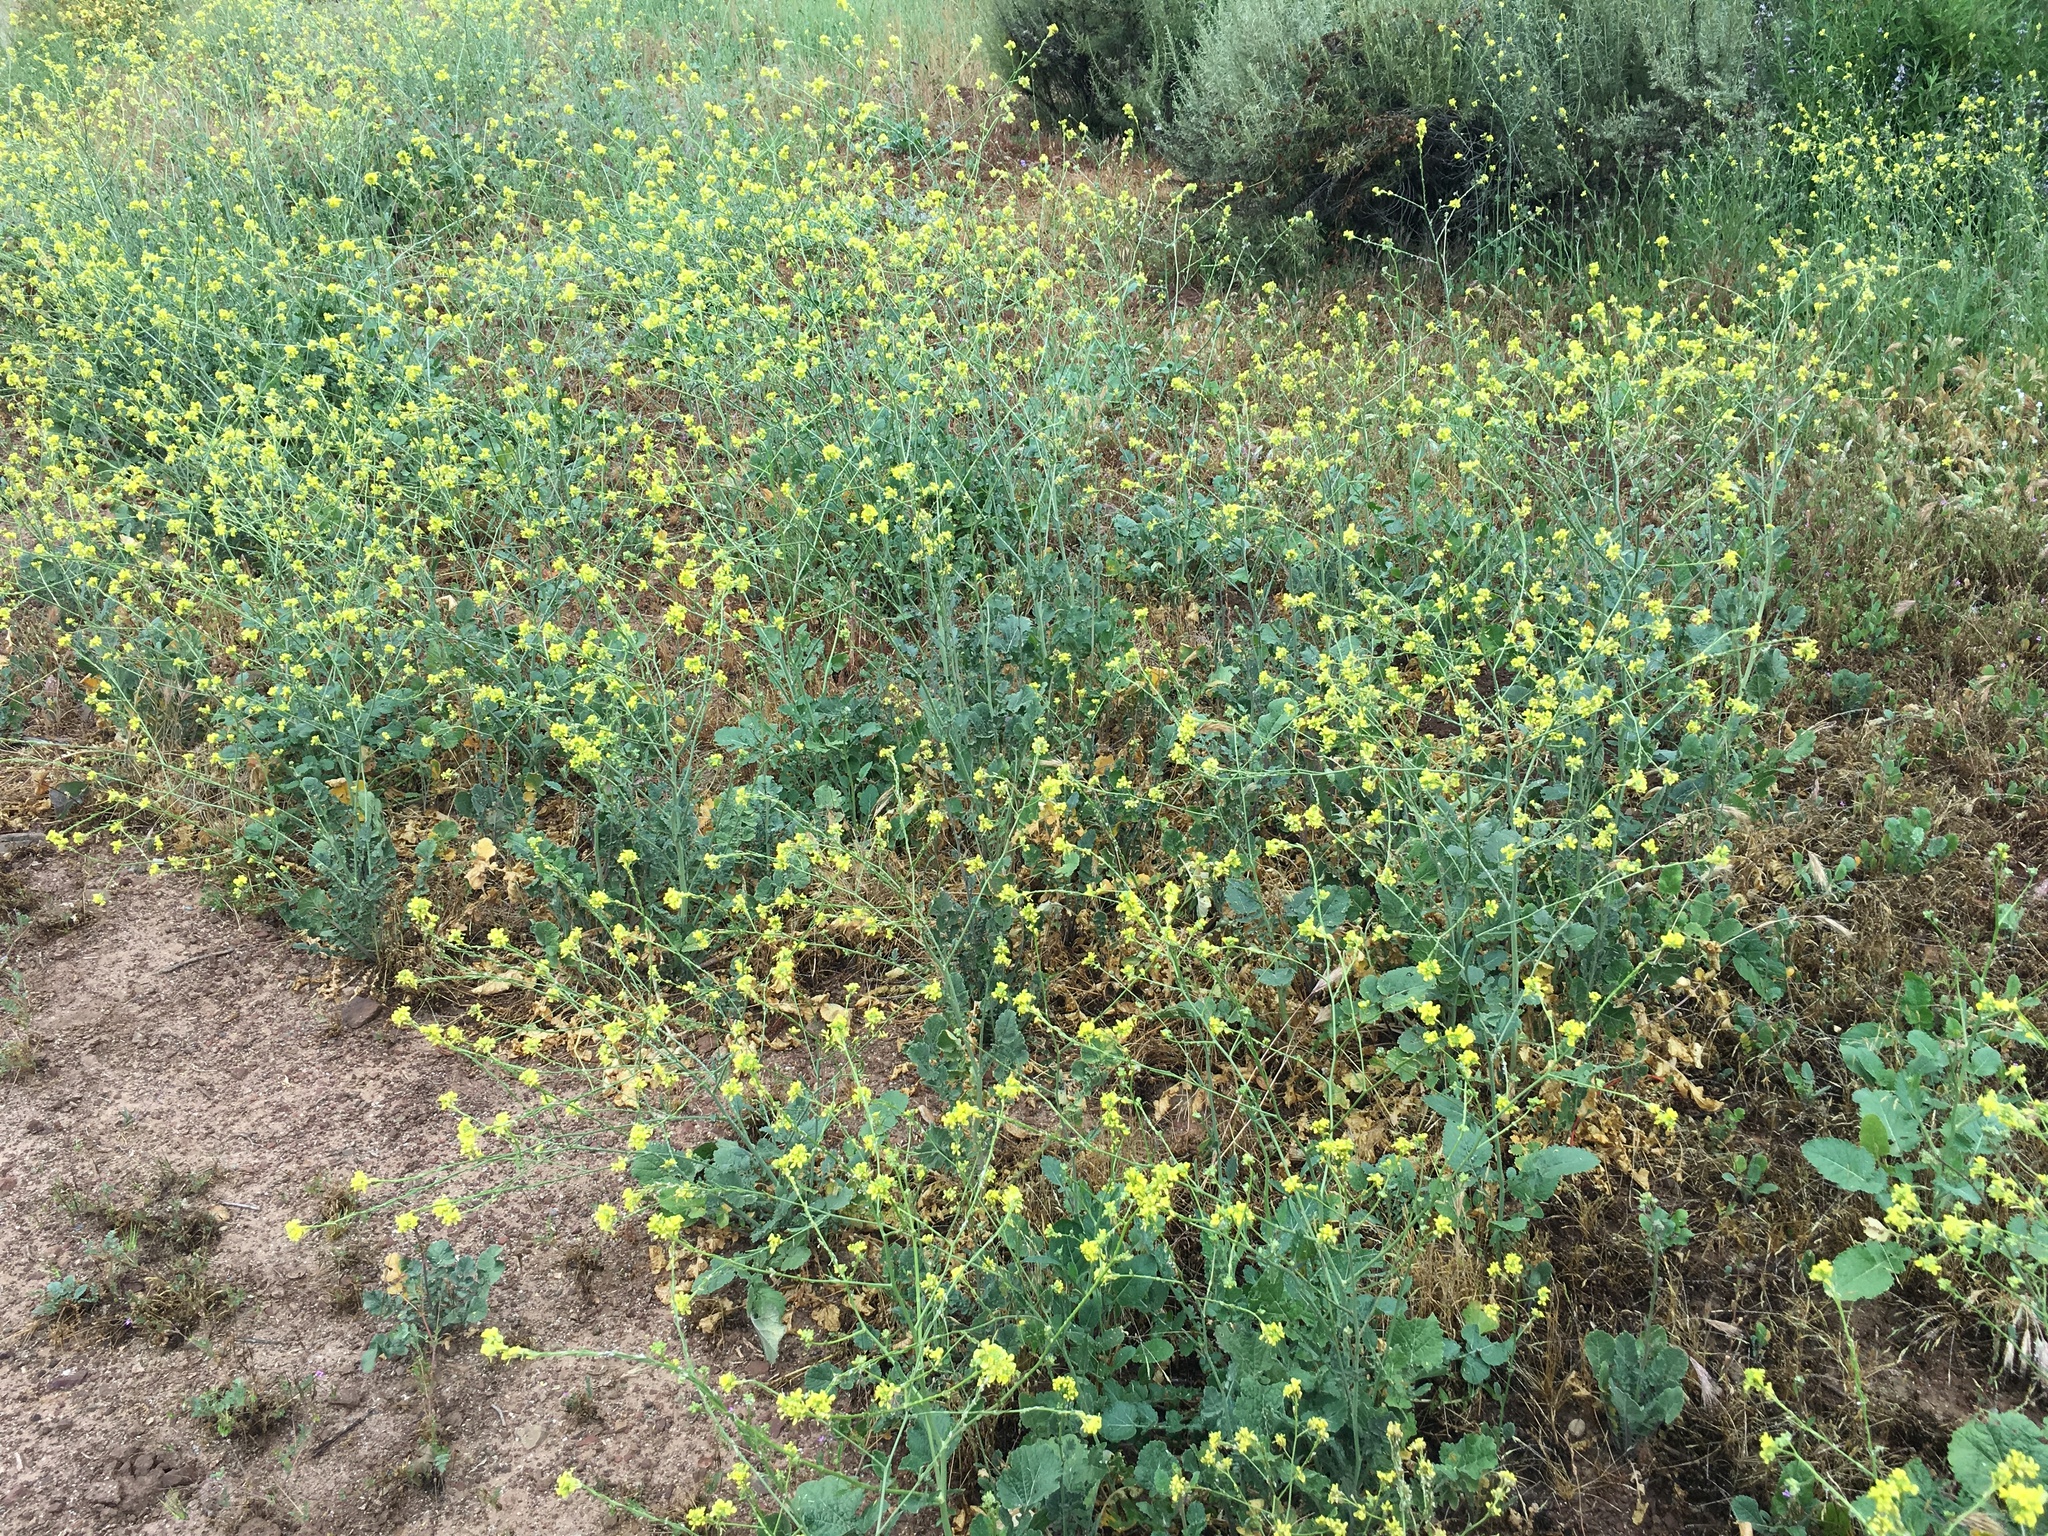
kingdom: Plantae
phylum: Tracheophyta
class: Magnoliopsida
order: Brassicales
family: Brassicaceae
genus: Hirschfeldia
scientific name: Hirschfeldia incana
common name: Hoary mustard
